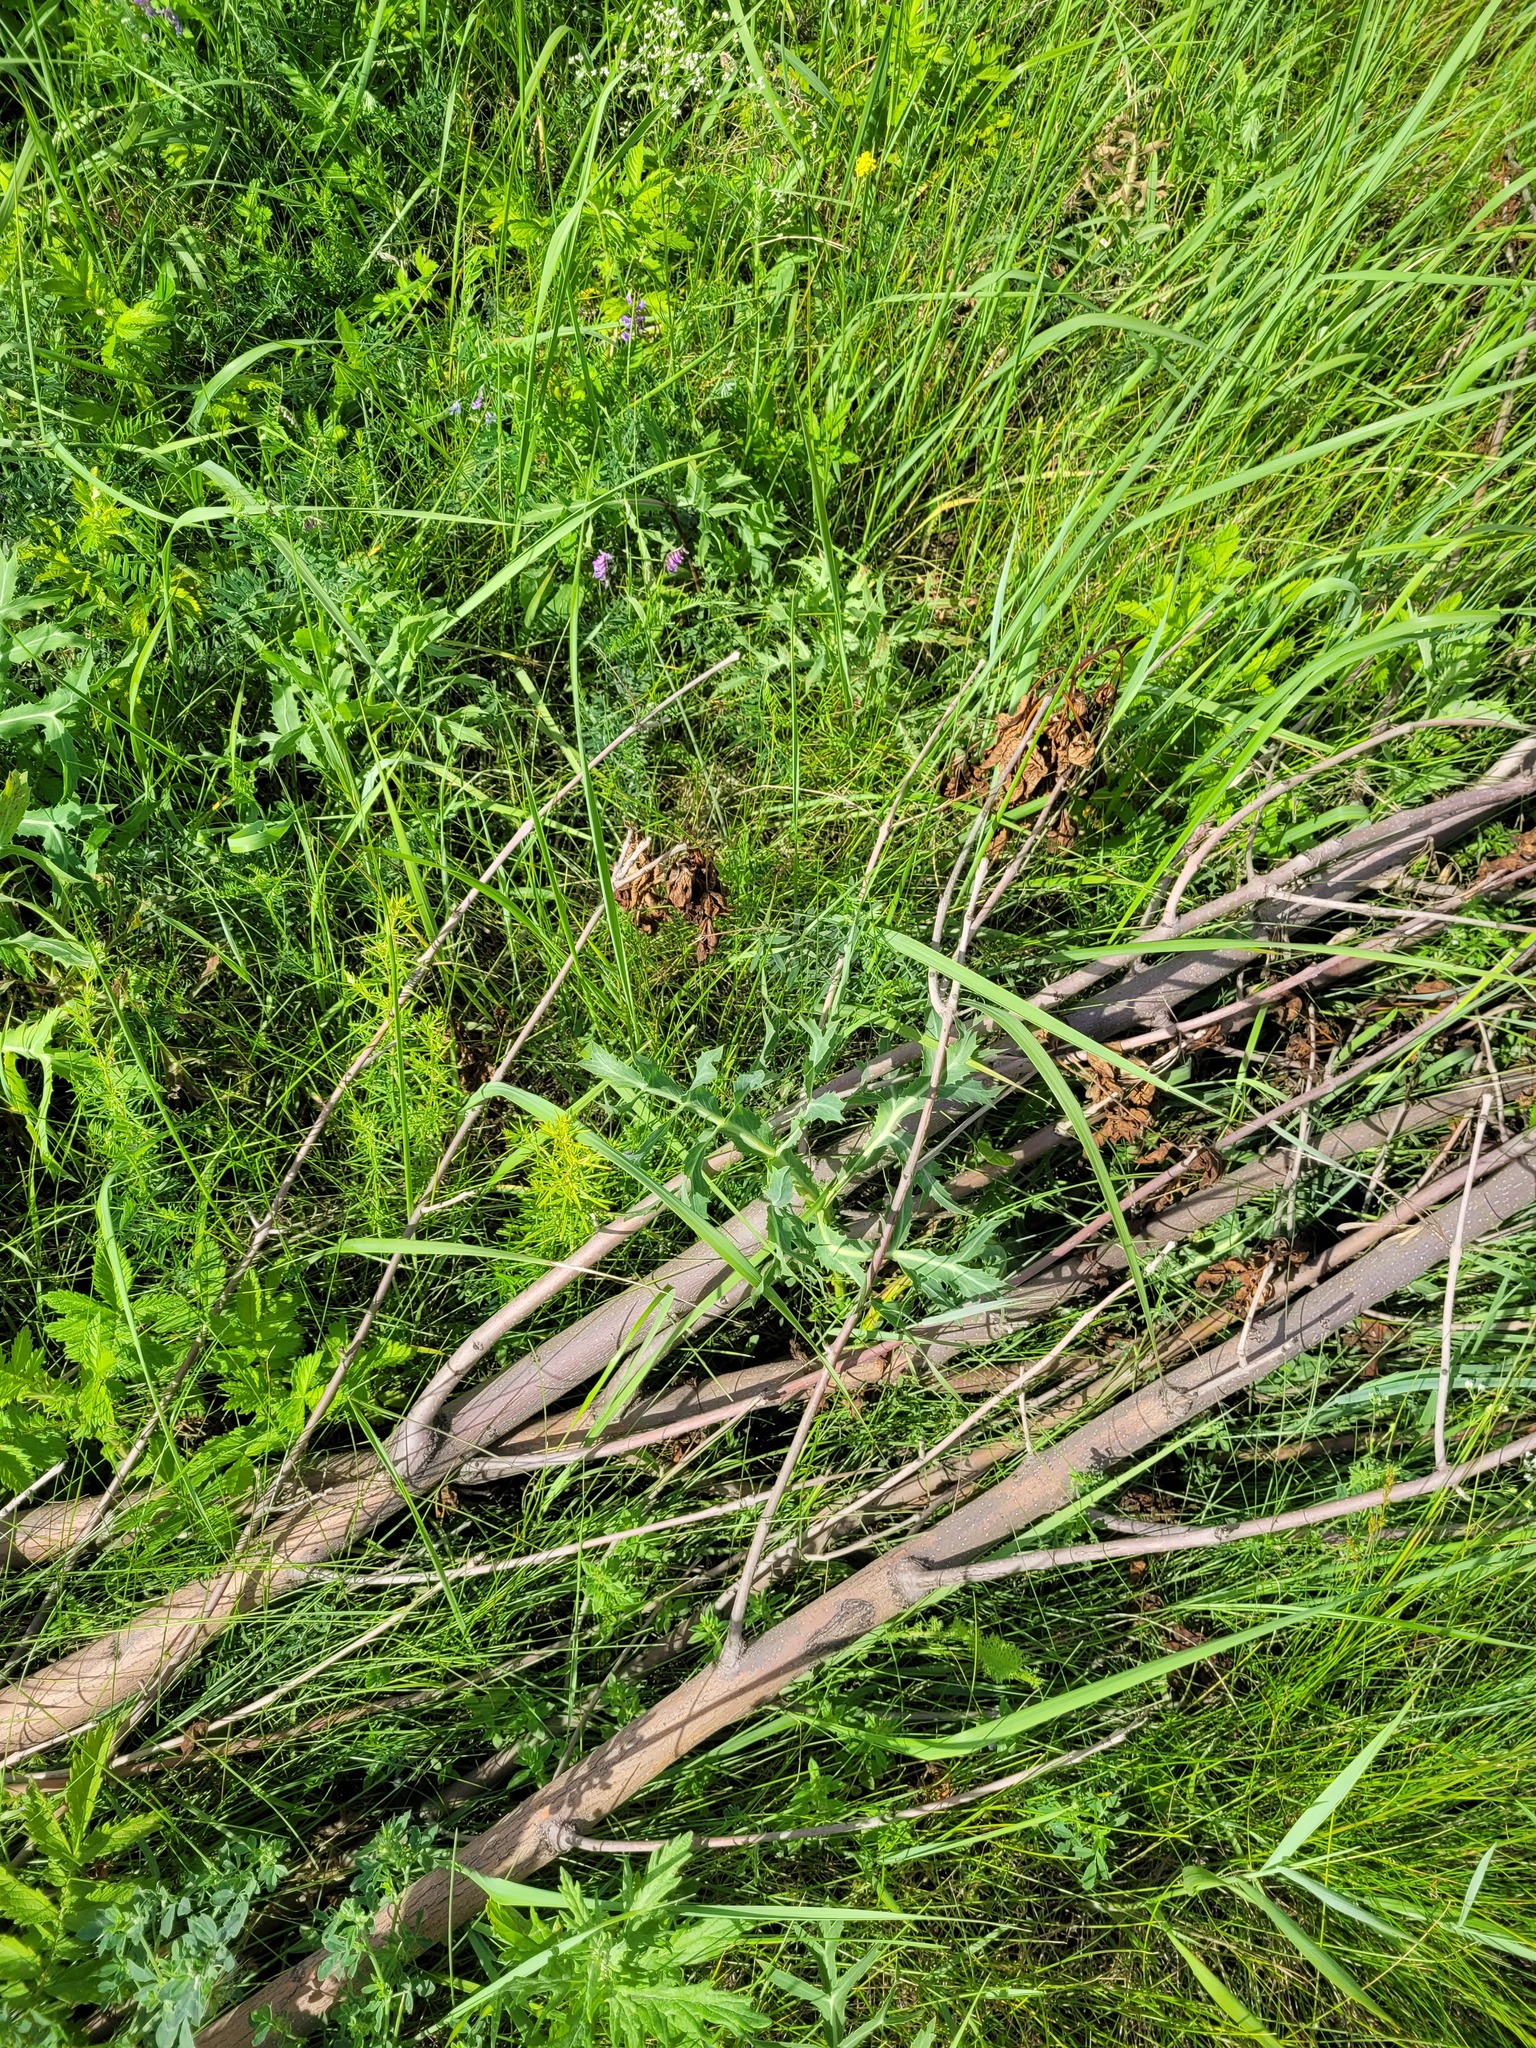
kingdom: Plantae
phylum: Tracheophyta
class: Magnoliopsida
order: Apiales
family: Apiaceae
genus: Eryngium
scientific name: Eryngium campestre
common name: Field eryngo
